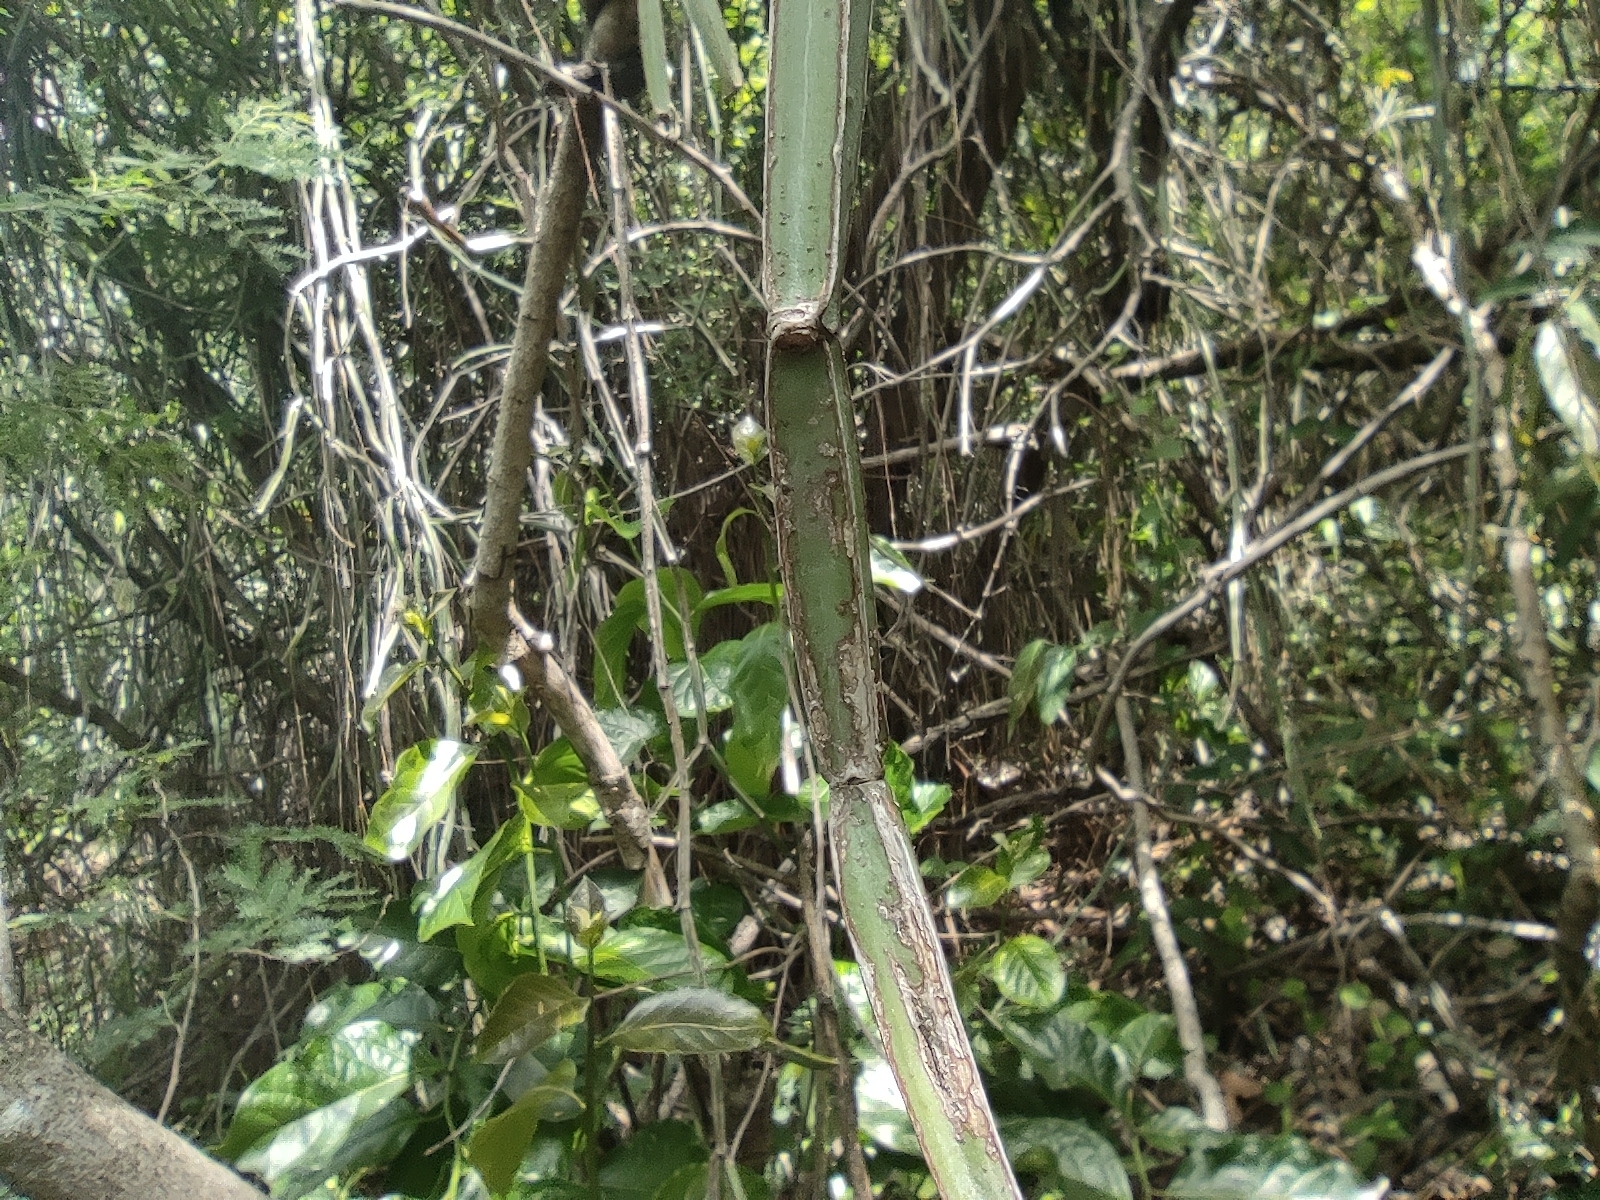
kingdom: Plantae
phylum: Tracheophyta
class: Magnoliopsida
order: Vitales
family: Vitaceae
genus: Cissus
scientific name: Cissus quadrangularis
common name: Veldt-grape
